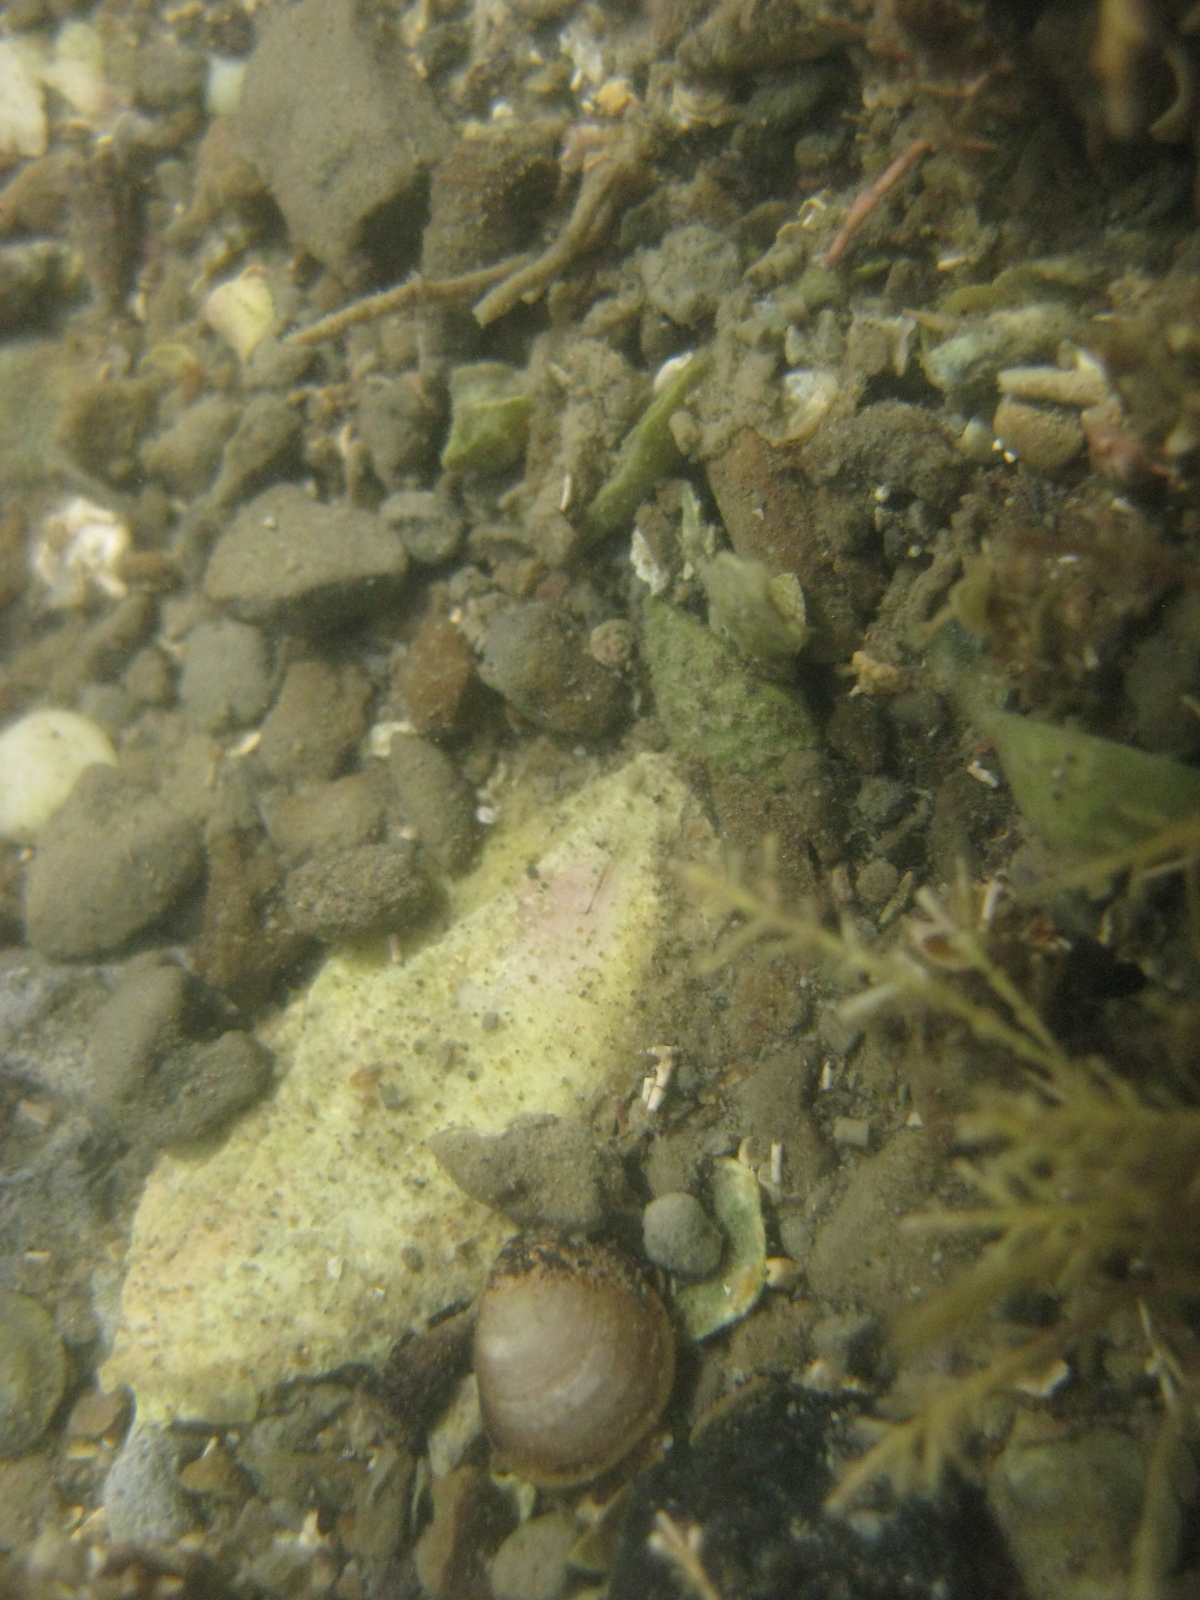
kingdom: Animalia
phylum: Mollusca
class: Bivalvia
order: Nuculida
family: Nuculidae
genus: Linucula
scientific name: Linucula hartvigiana
